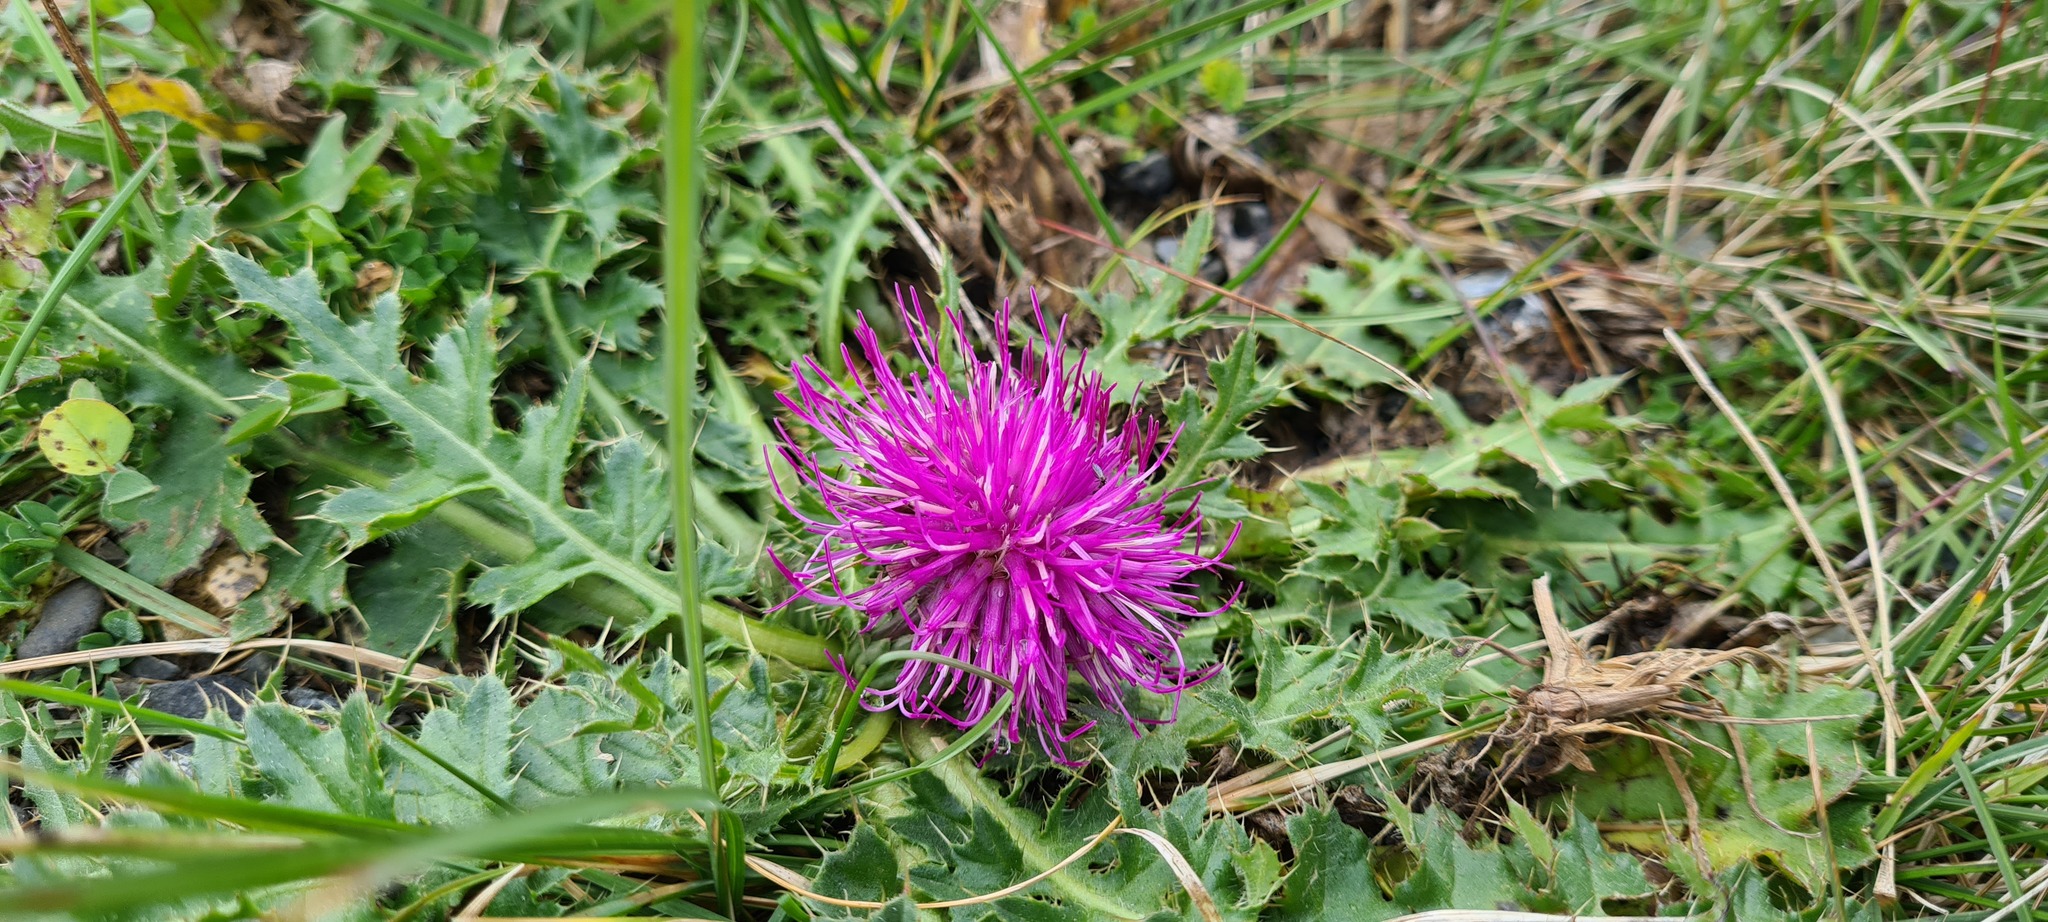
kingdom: Plantae
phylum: Tracheophyta
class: Magnoliopsida
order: Asterales
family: Asteraceae
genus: Cirsium
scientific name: Cirsium acaulon
